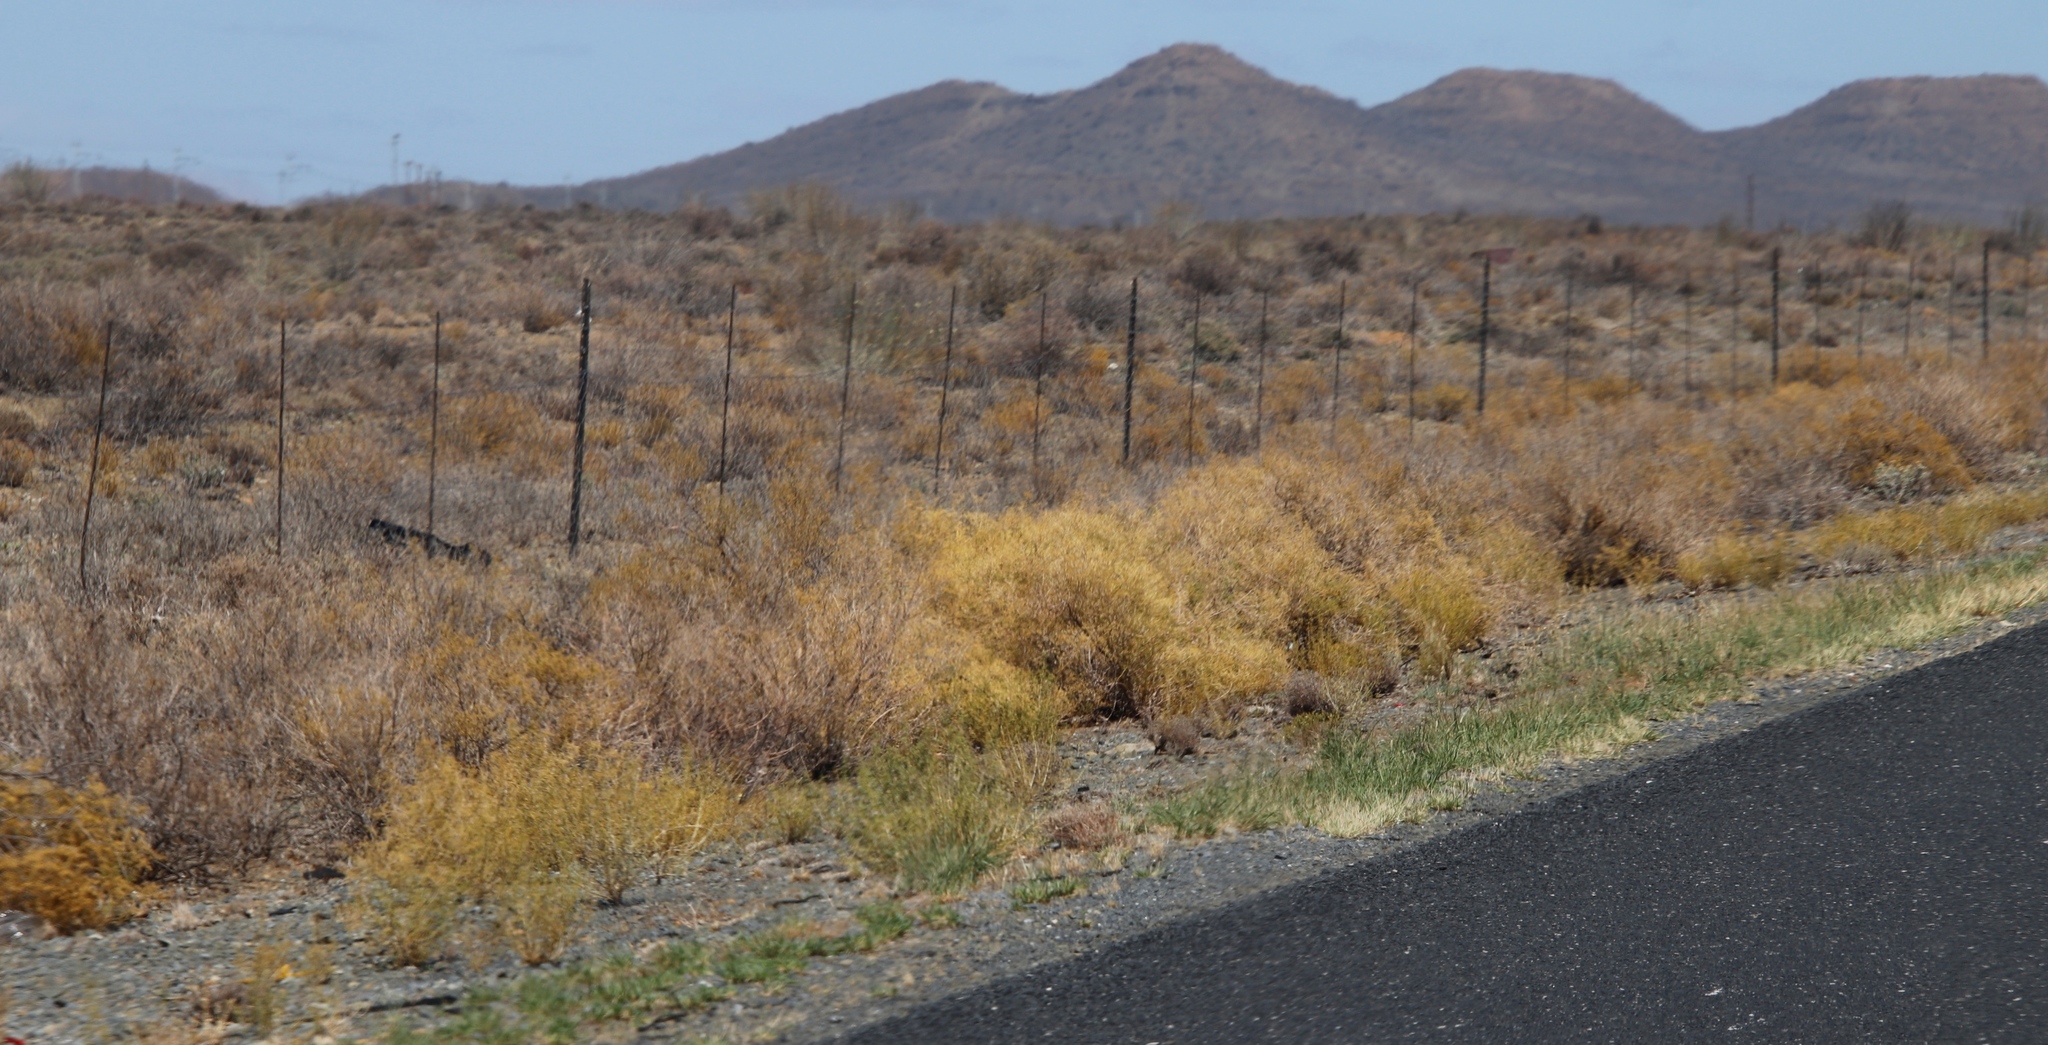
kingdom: Plantae
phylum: Tracheophyta
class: Magnoliopsida
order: Caryophyllales
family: Aizoaceae
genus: Aizoon
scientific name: Aizoon africanum
